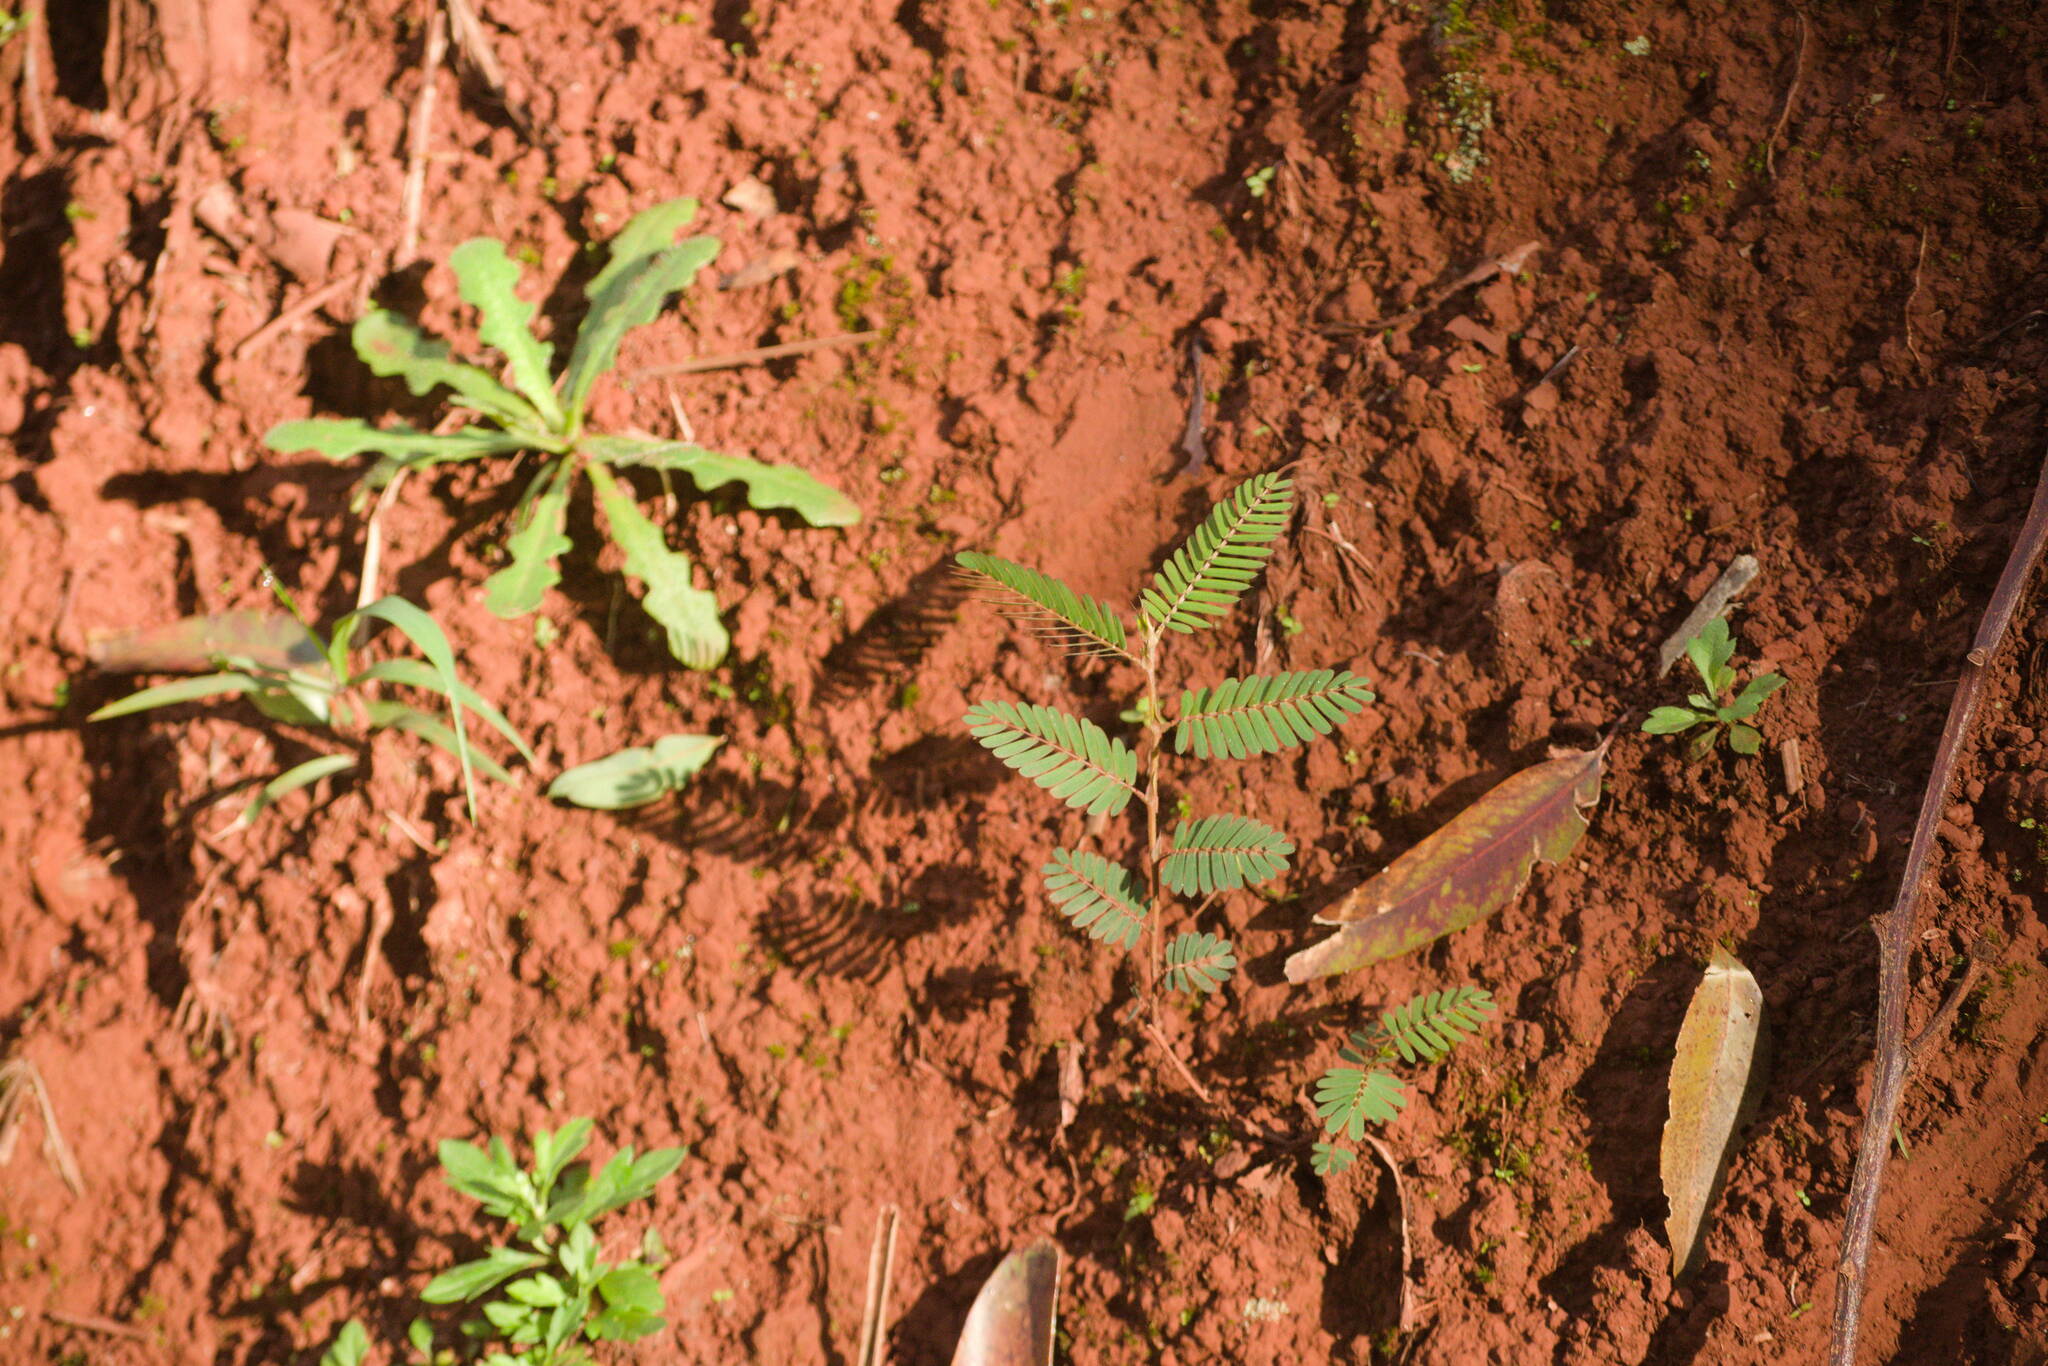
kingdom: Plantae
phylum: Tracheophyta
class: Magnoliopsida
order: Fabales
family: Fabaceae
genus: Chamaecrista
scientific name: Chamaecrista nictitans
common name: Sensitive cassia
